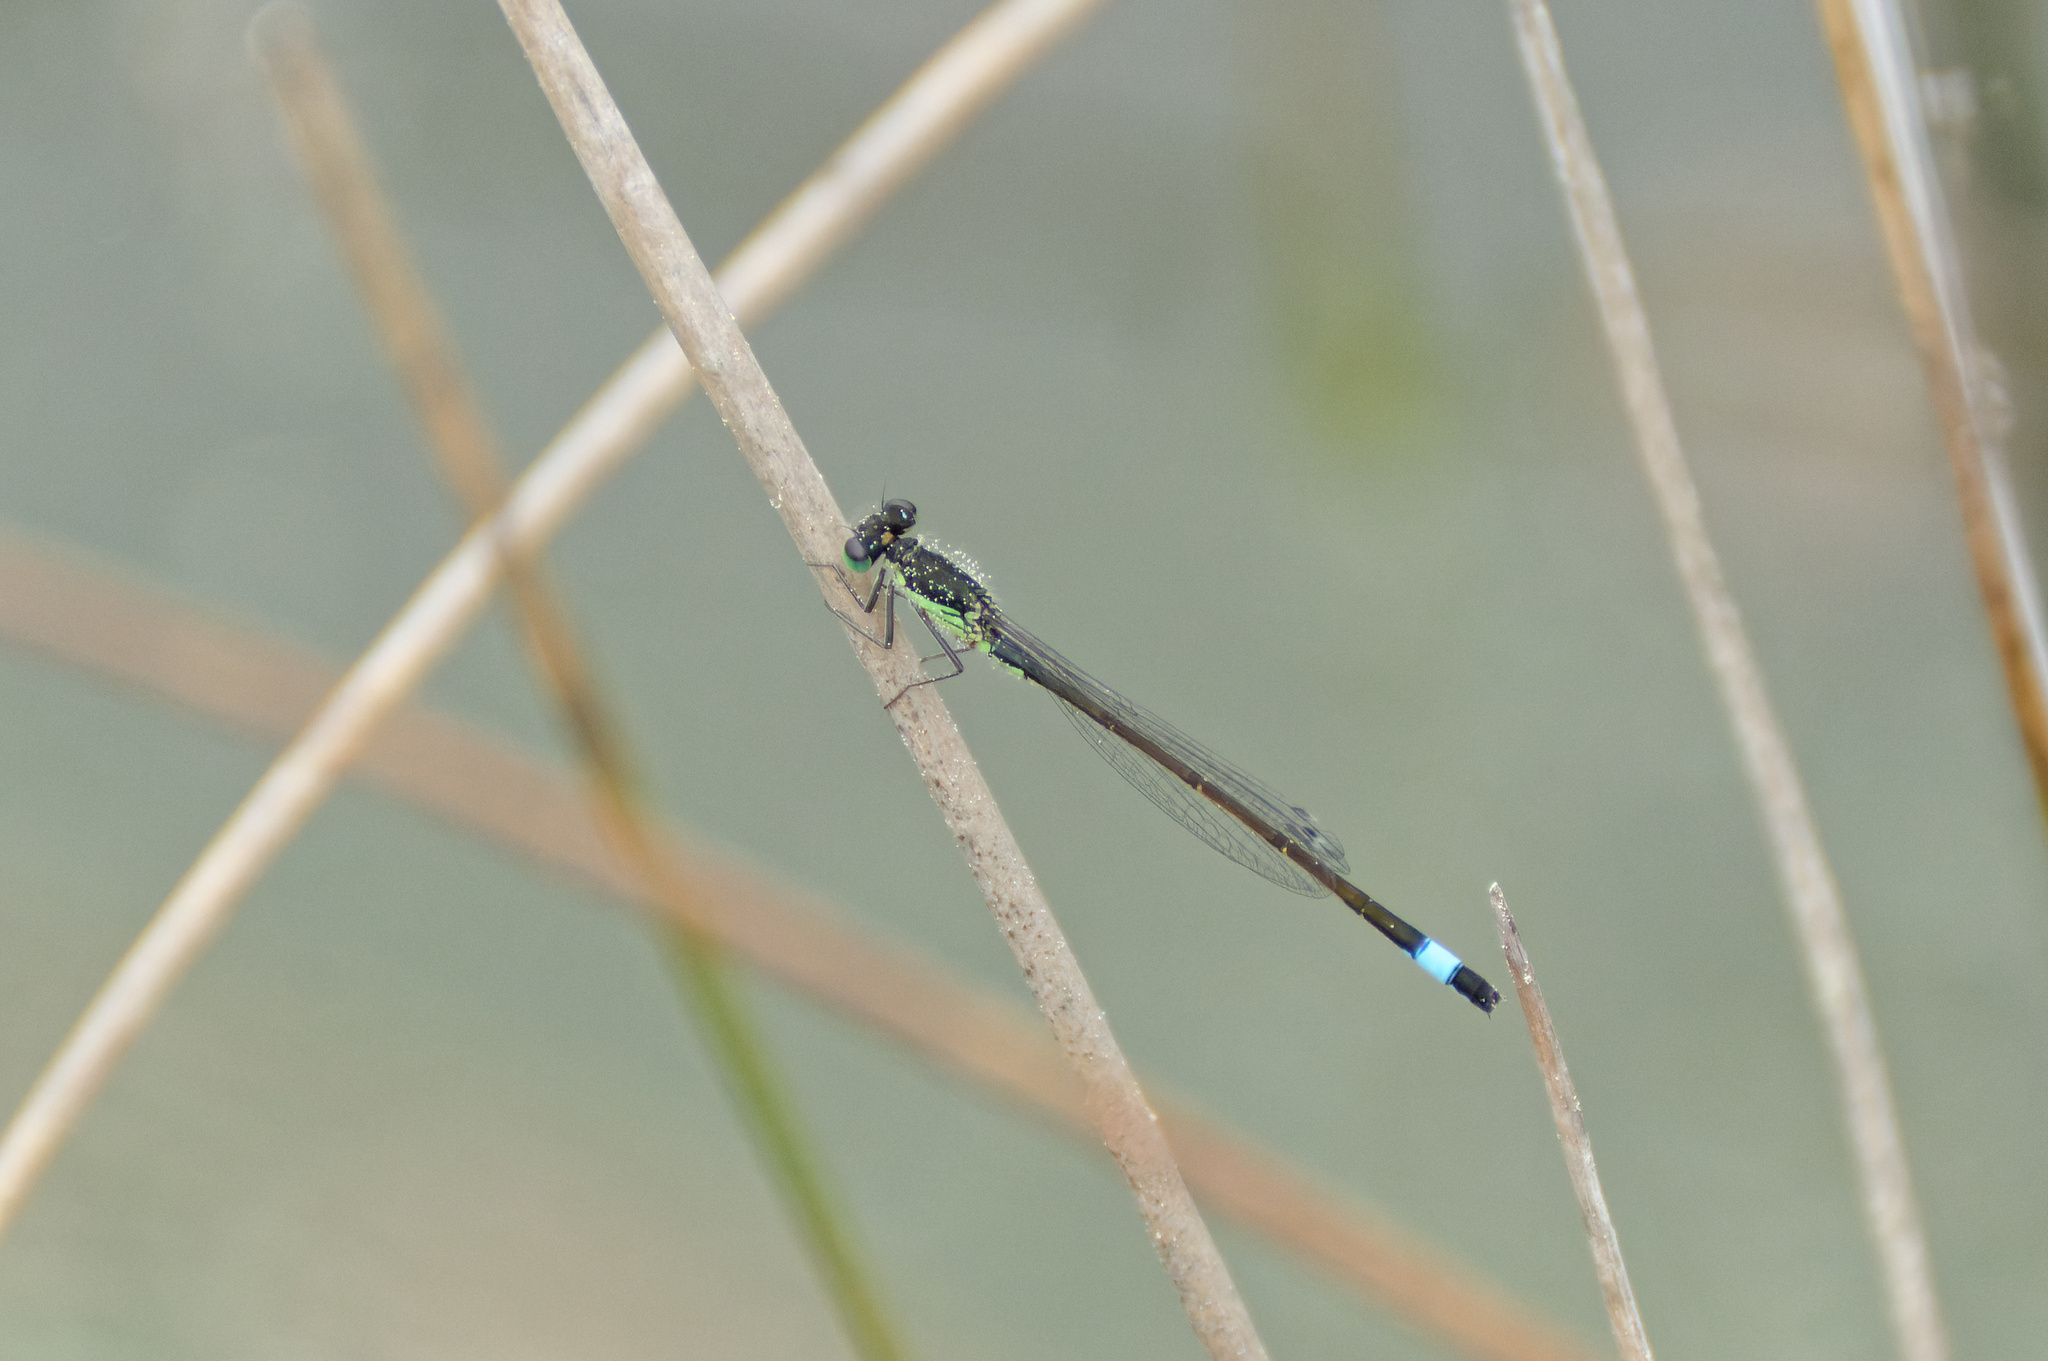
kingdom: Animalia
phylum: Arthropoda
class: Insecta
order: Odonata
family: Coenagrionidae
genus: Ischnura
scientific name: Ischnura elegans
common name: Blue-tailed damselfly
